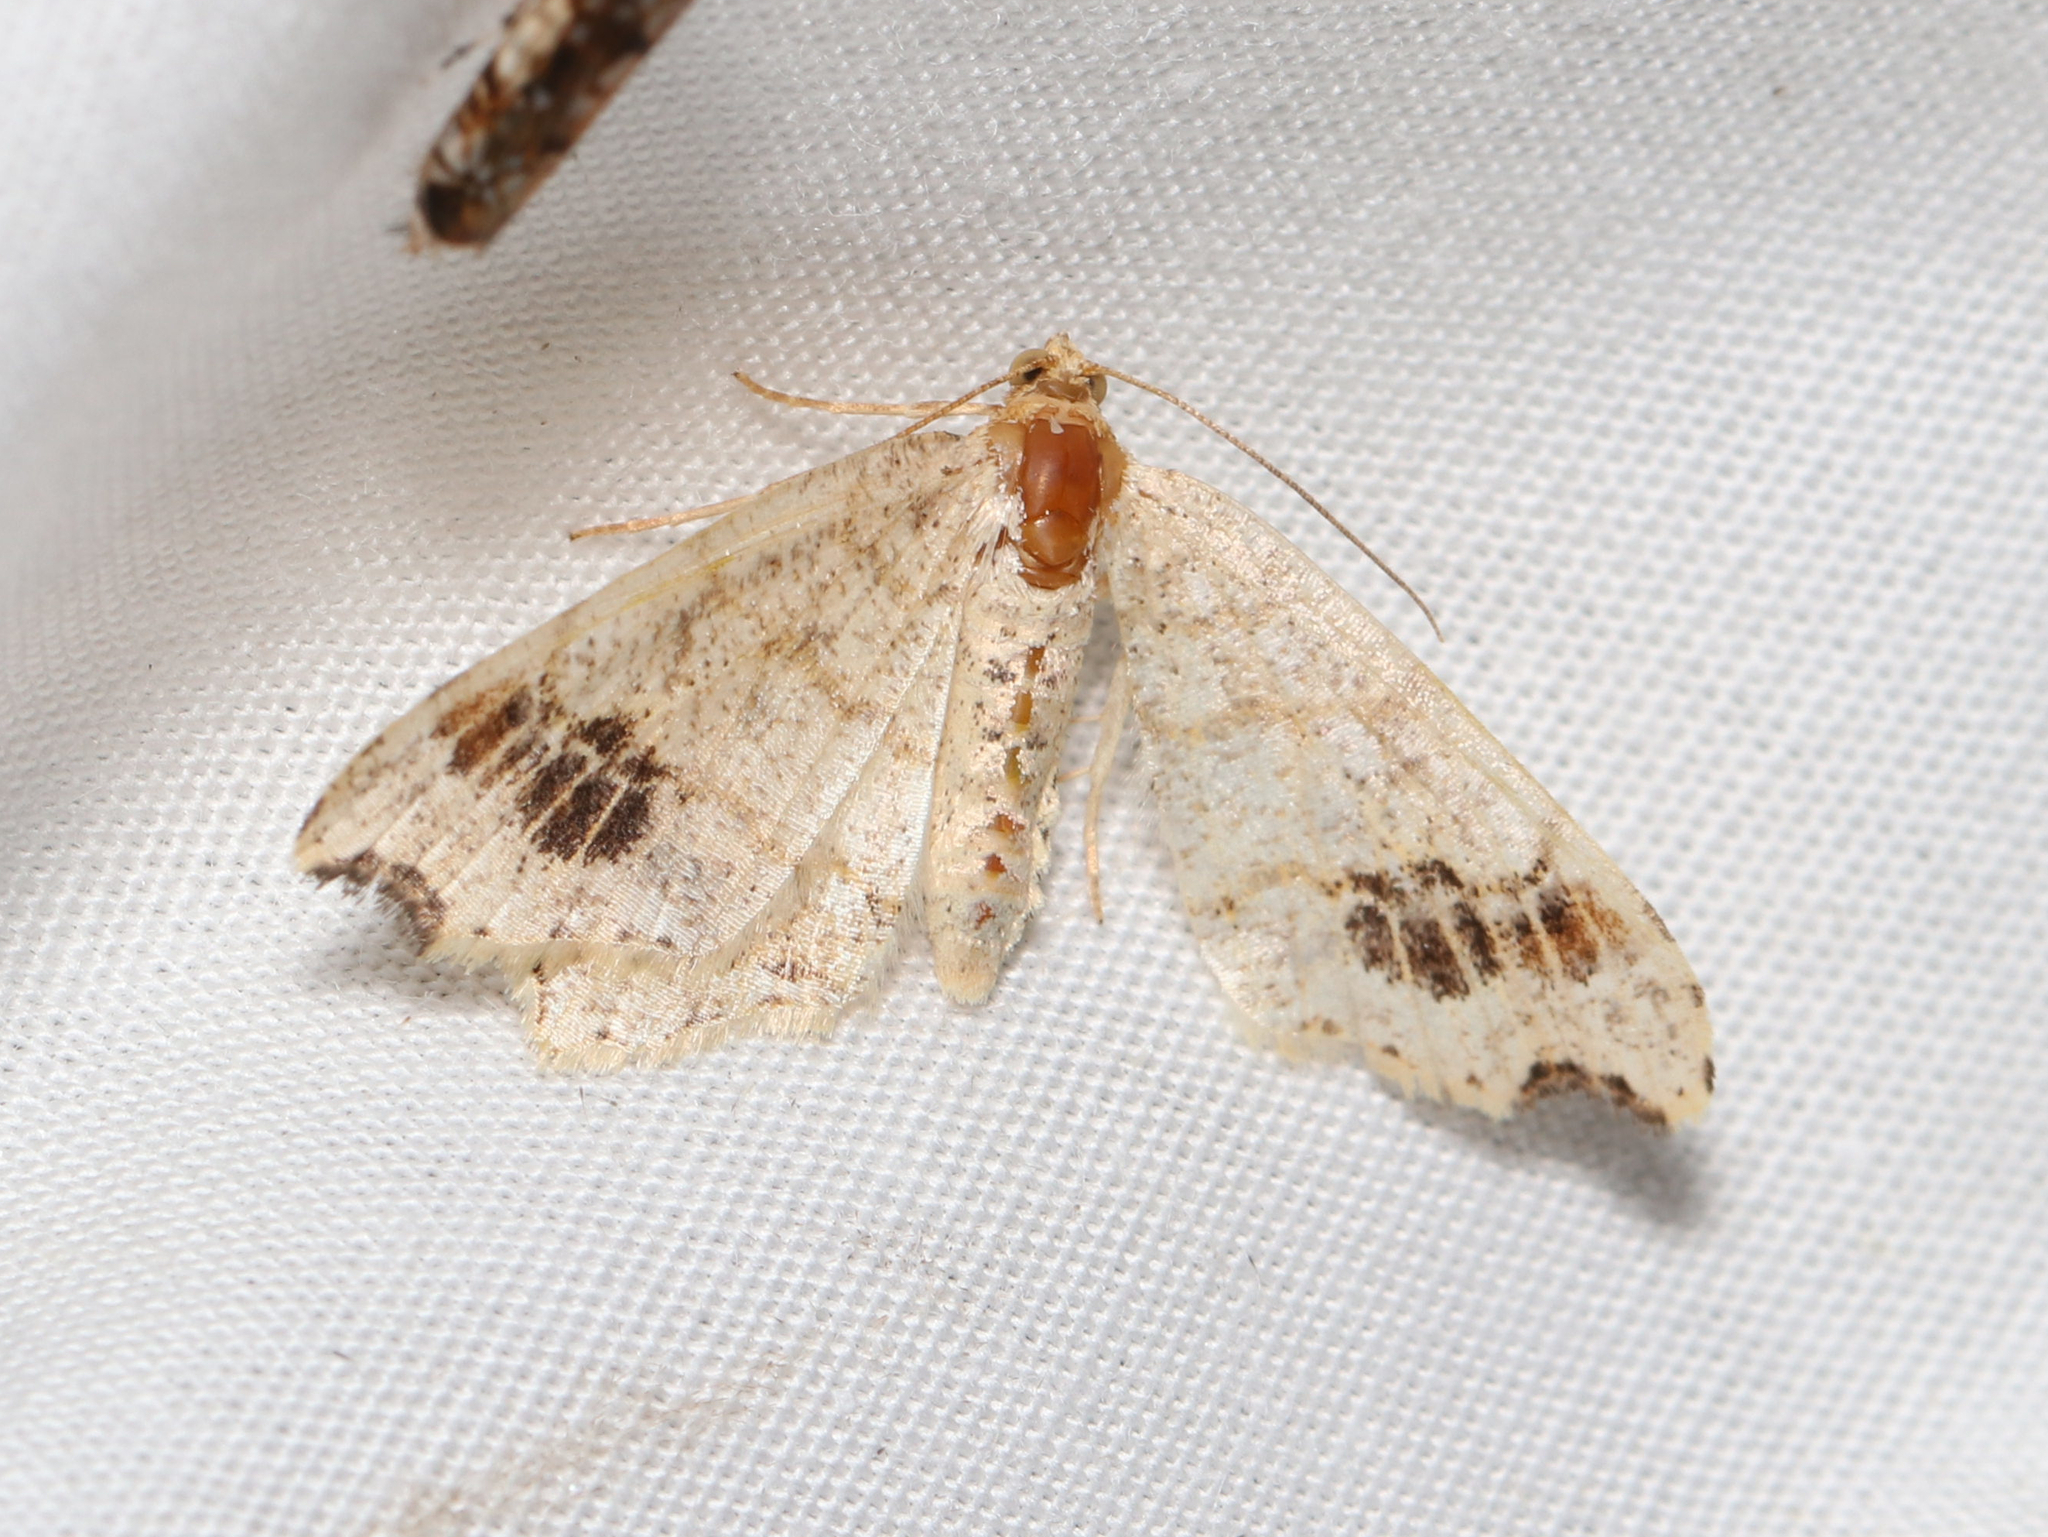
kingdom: Animalia
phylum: Arthropoda
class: Insecta
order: Lepidoptera
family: Geometridae
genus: Macaria
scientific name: Macaria aemulataria
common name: Common angle
